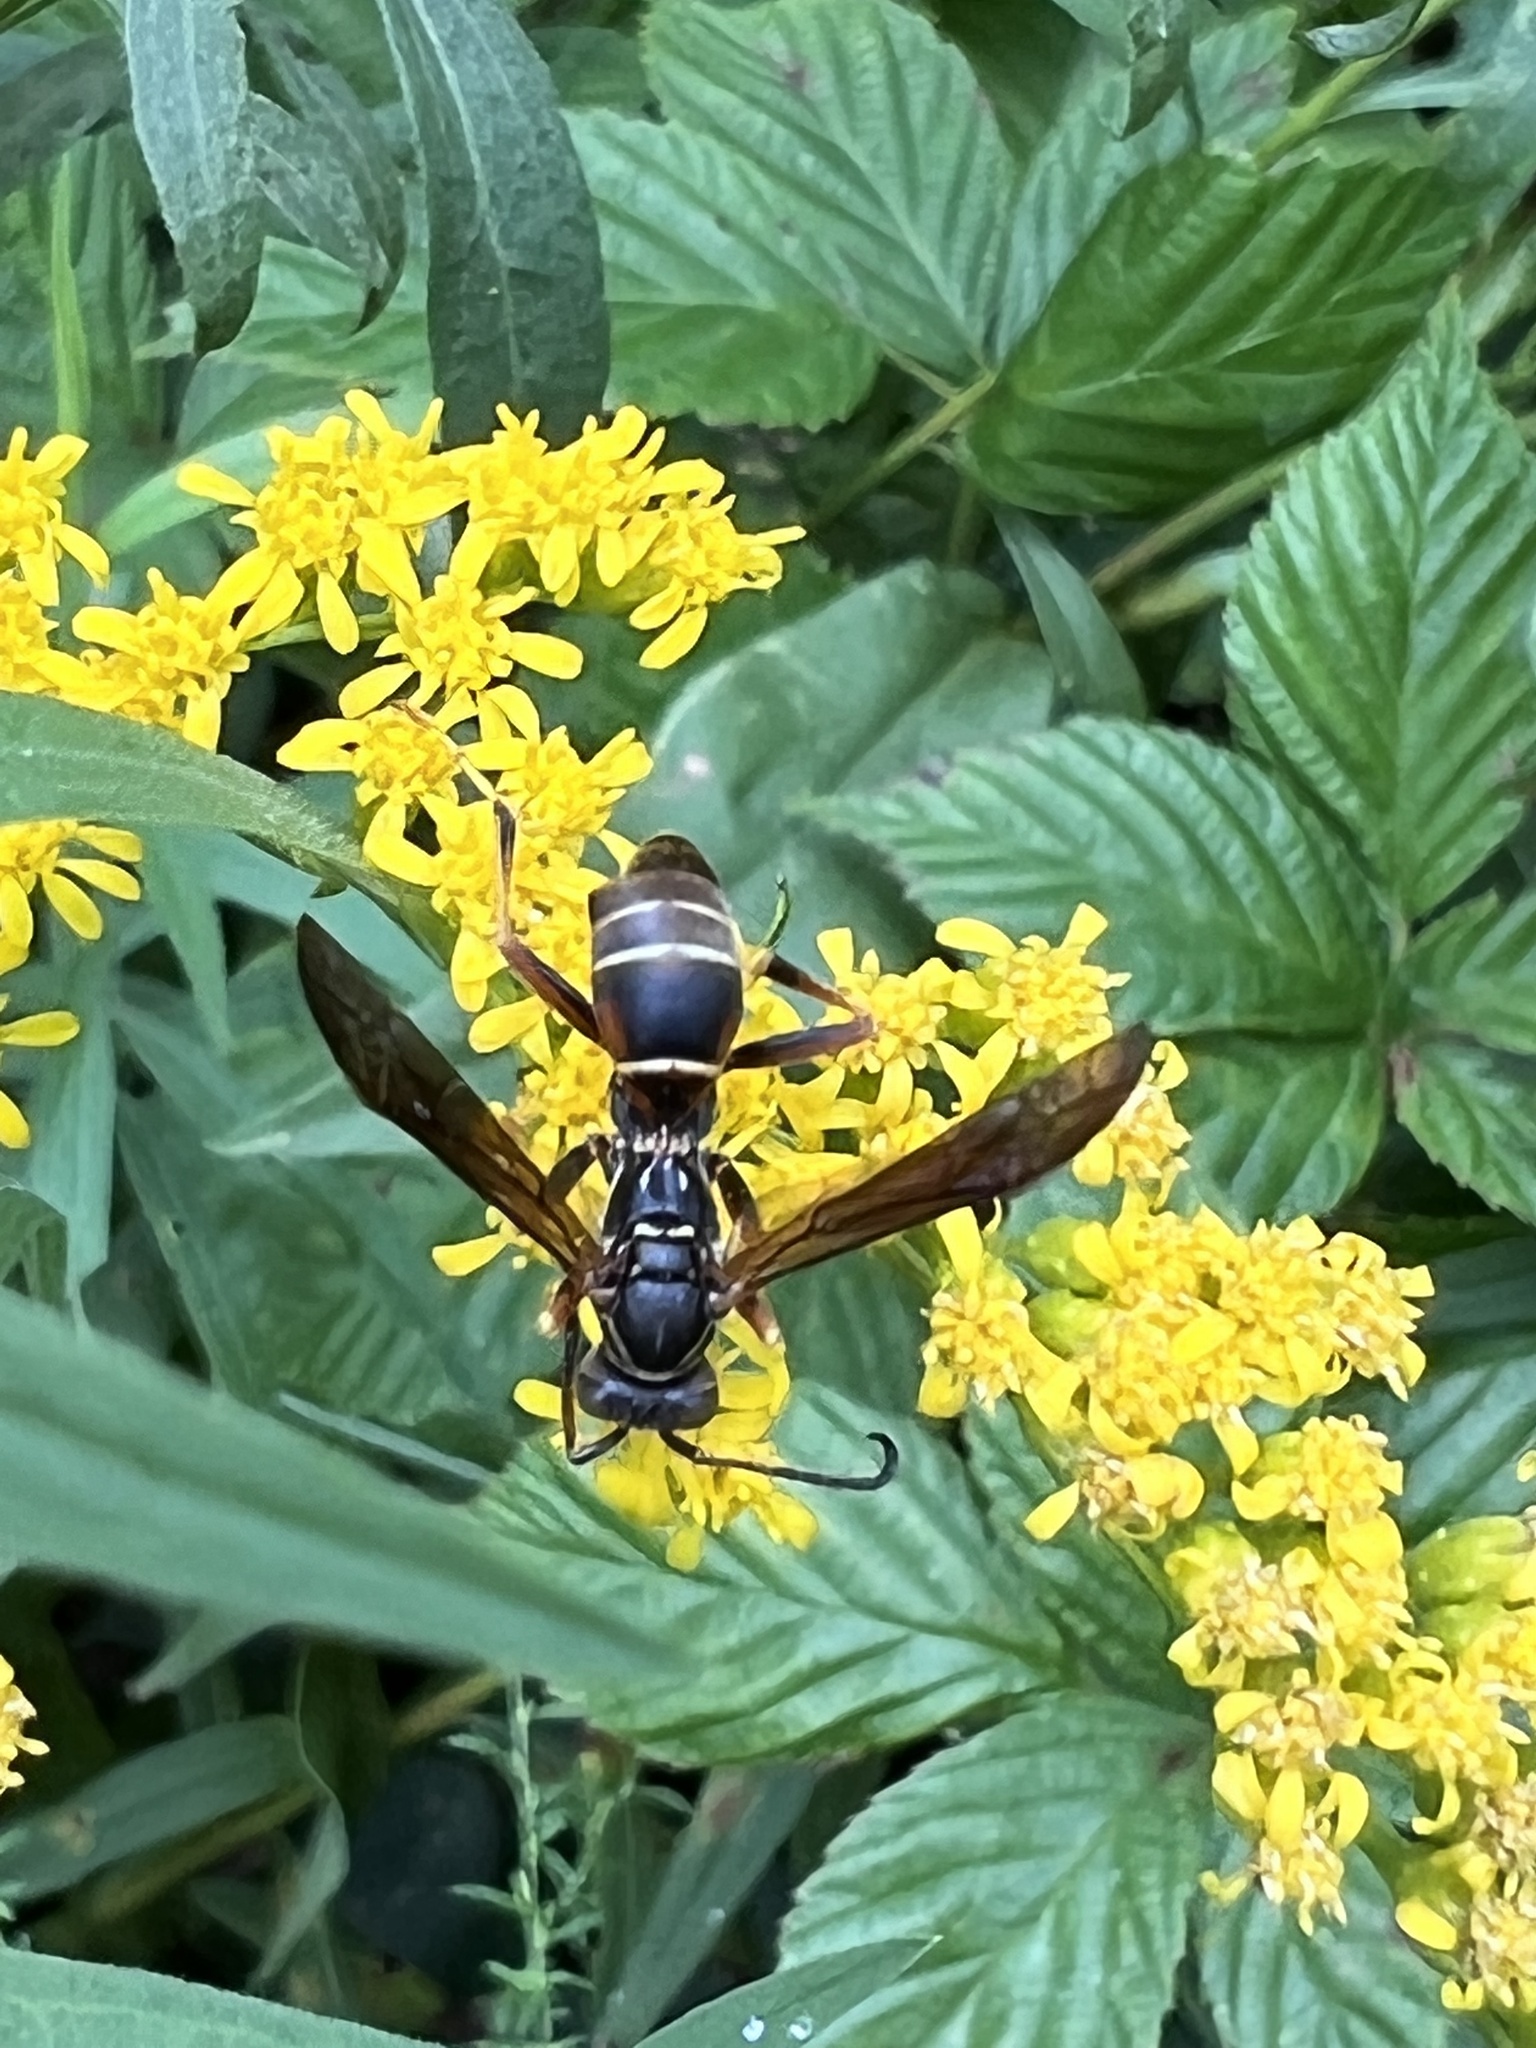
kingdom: Animalia
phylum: Arthropoda
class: Insecta
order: Hymenoptera
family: Eumenidae
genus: Polistes
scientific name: Polistes fuscatus
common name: Dark paper wasp
